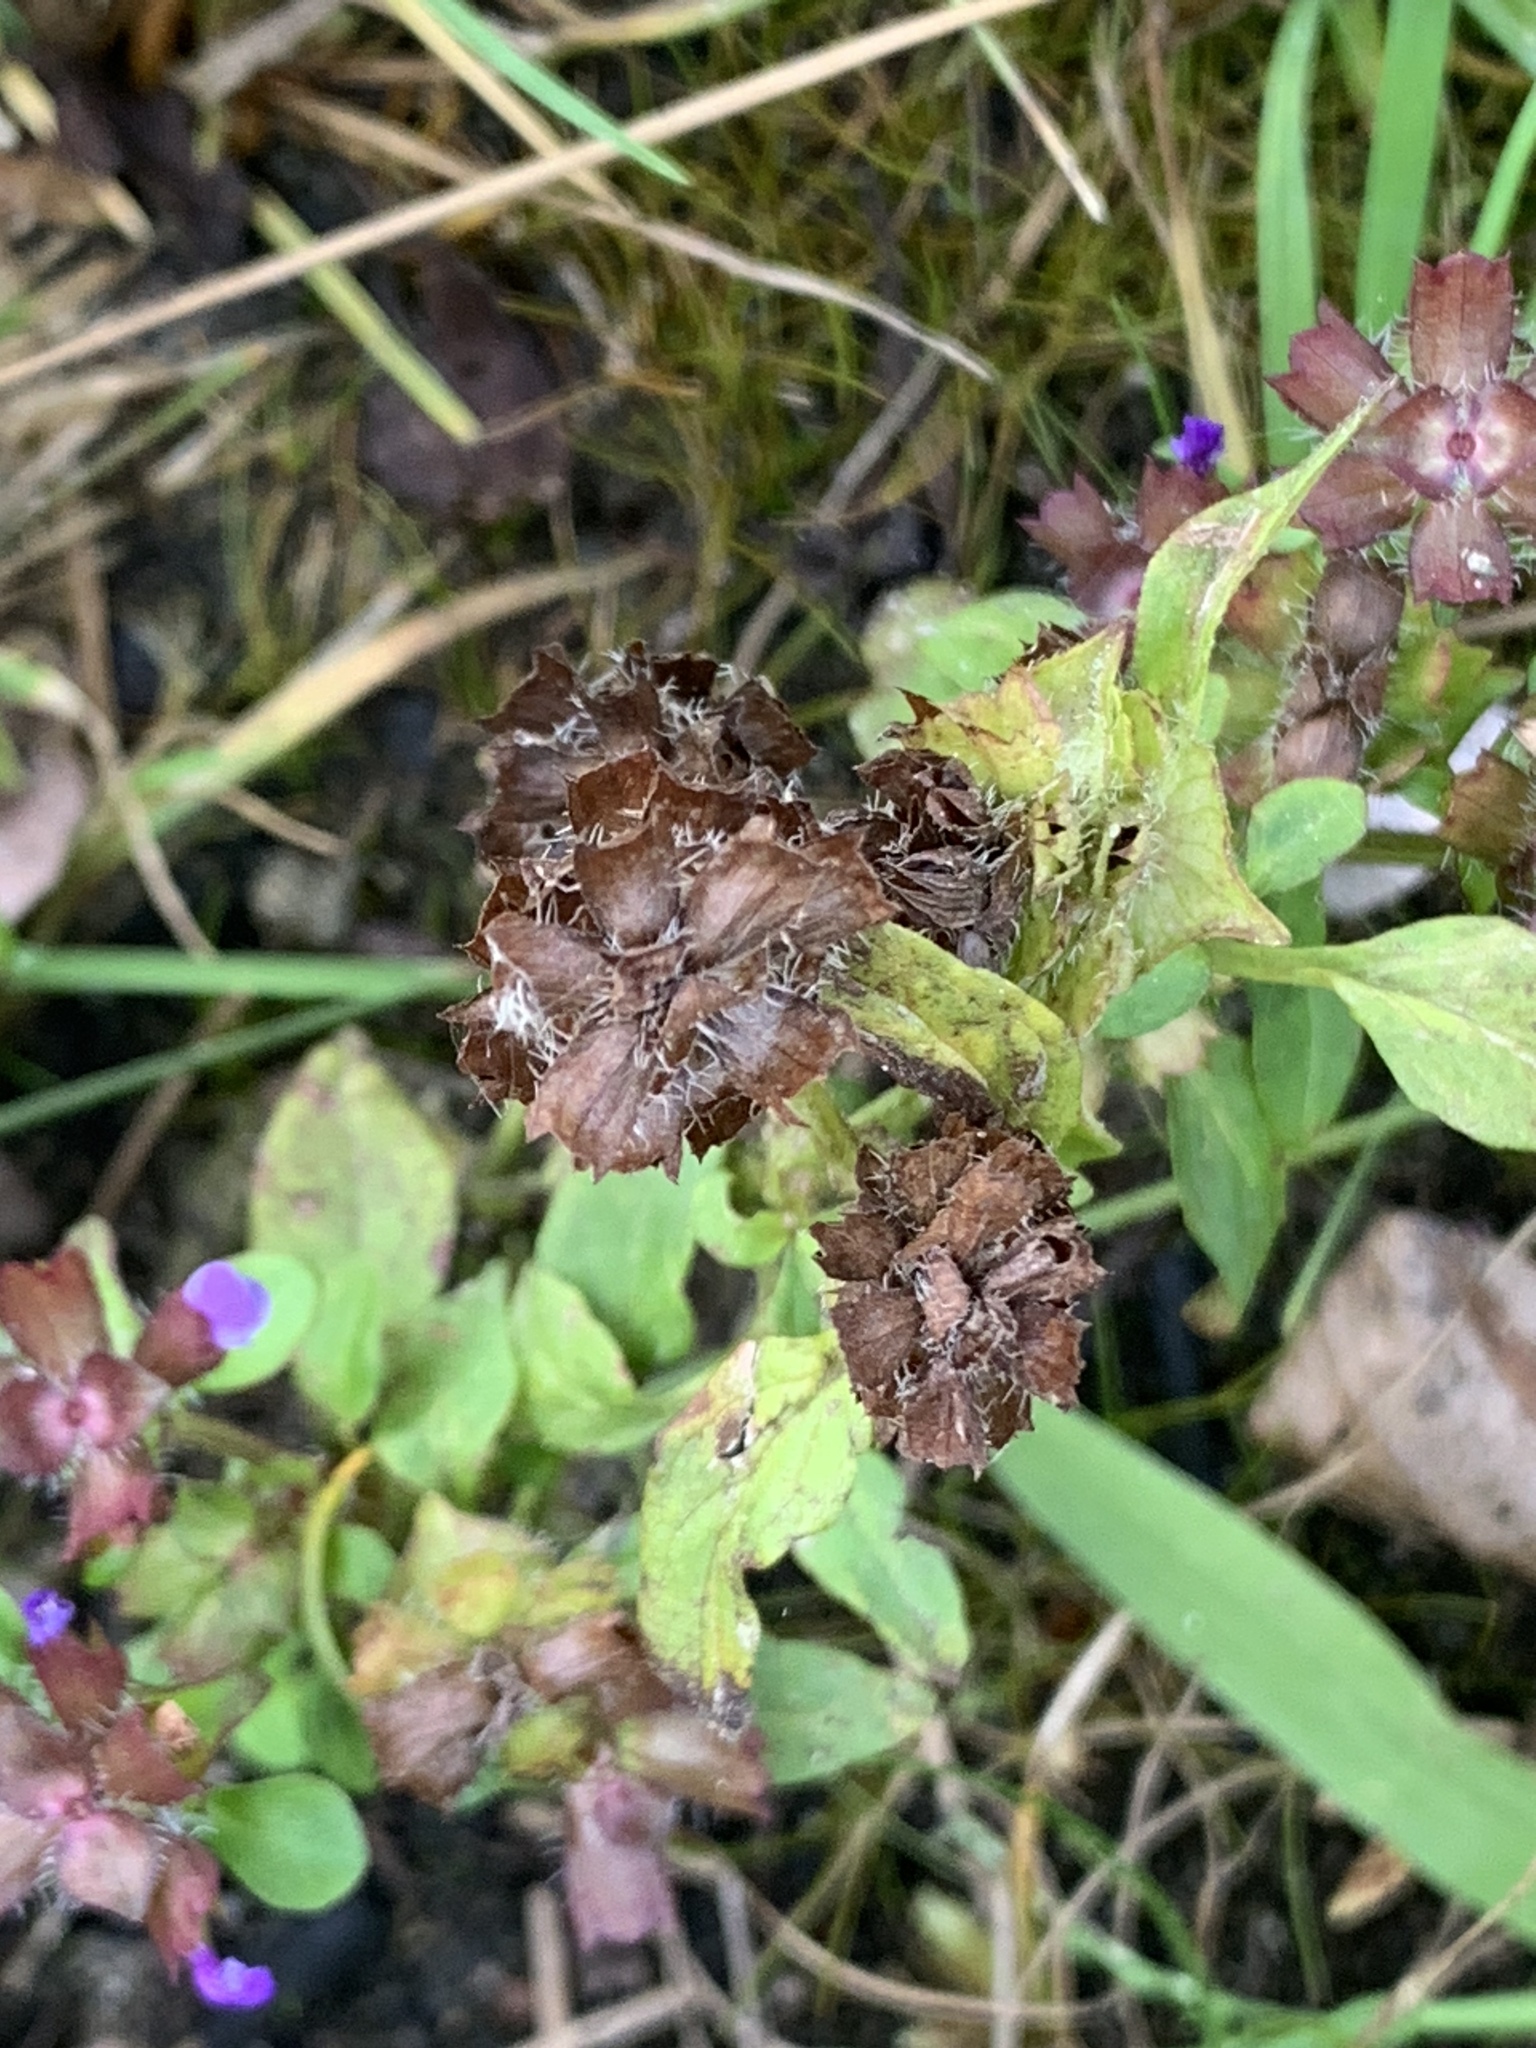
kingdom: Plantae
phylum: Tracheophyta
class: Magnoliopsida
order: Lamiales
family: Lamiaceae
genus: Prunella
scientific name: Prunella vulgaris
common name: Heal-all
